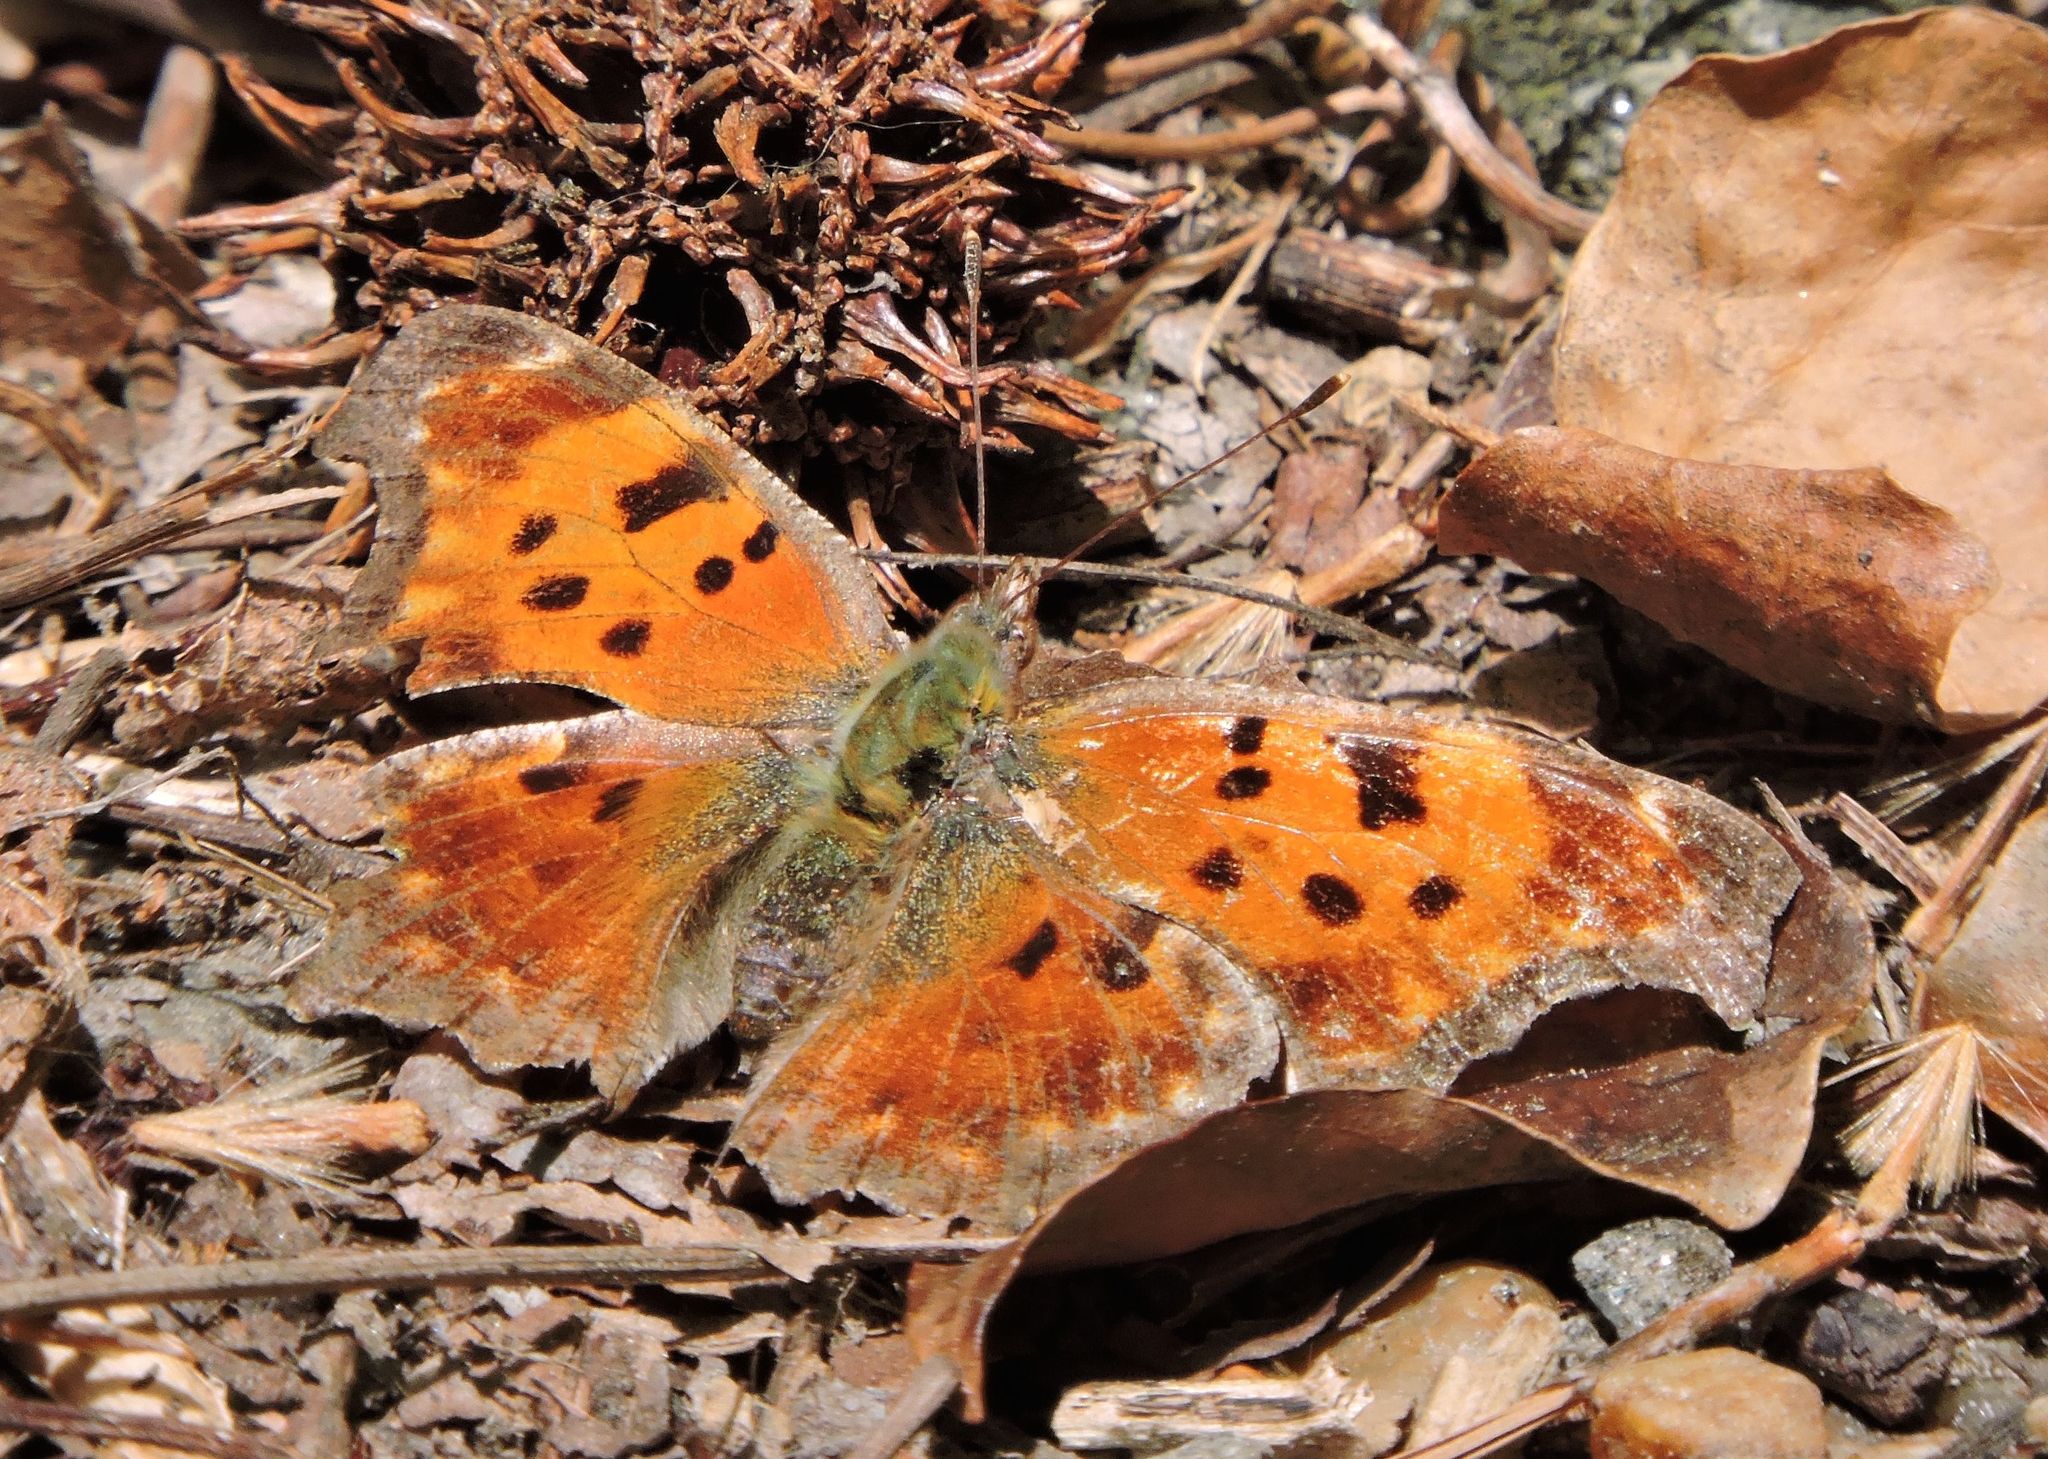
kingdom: Animalia
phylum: Arthropoda
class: Insecta
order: Lepidoptera
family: Nymphalidae
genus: Polygonia
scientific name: Polygonia comma
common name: Eastern comma
